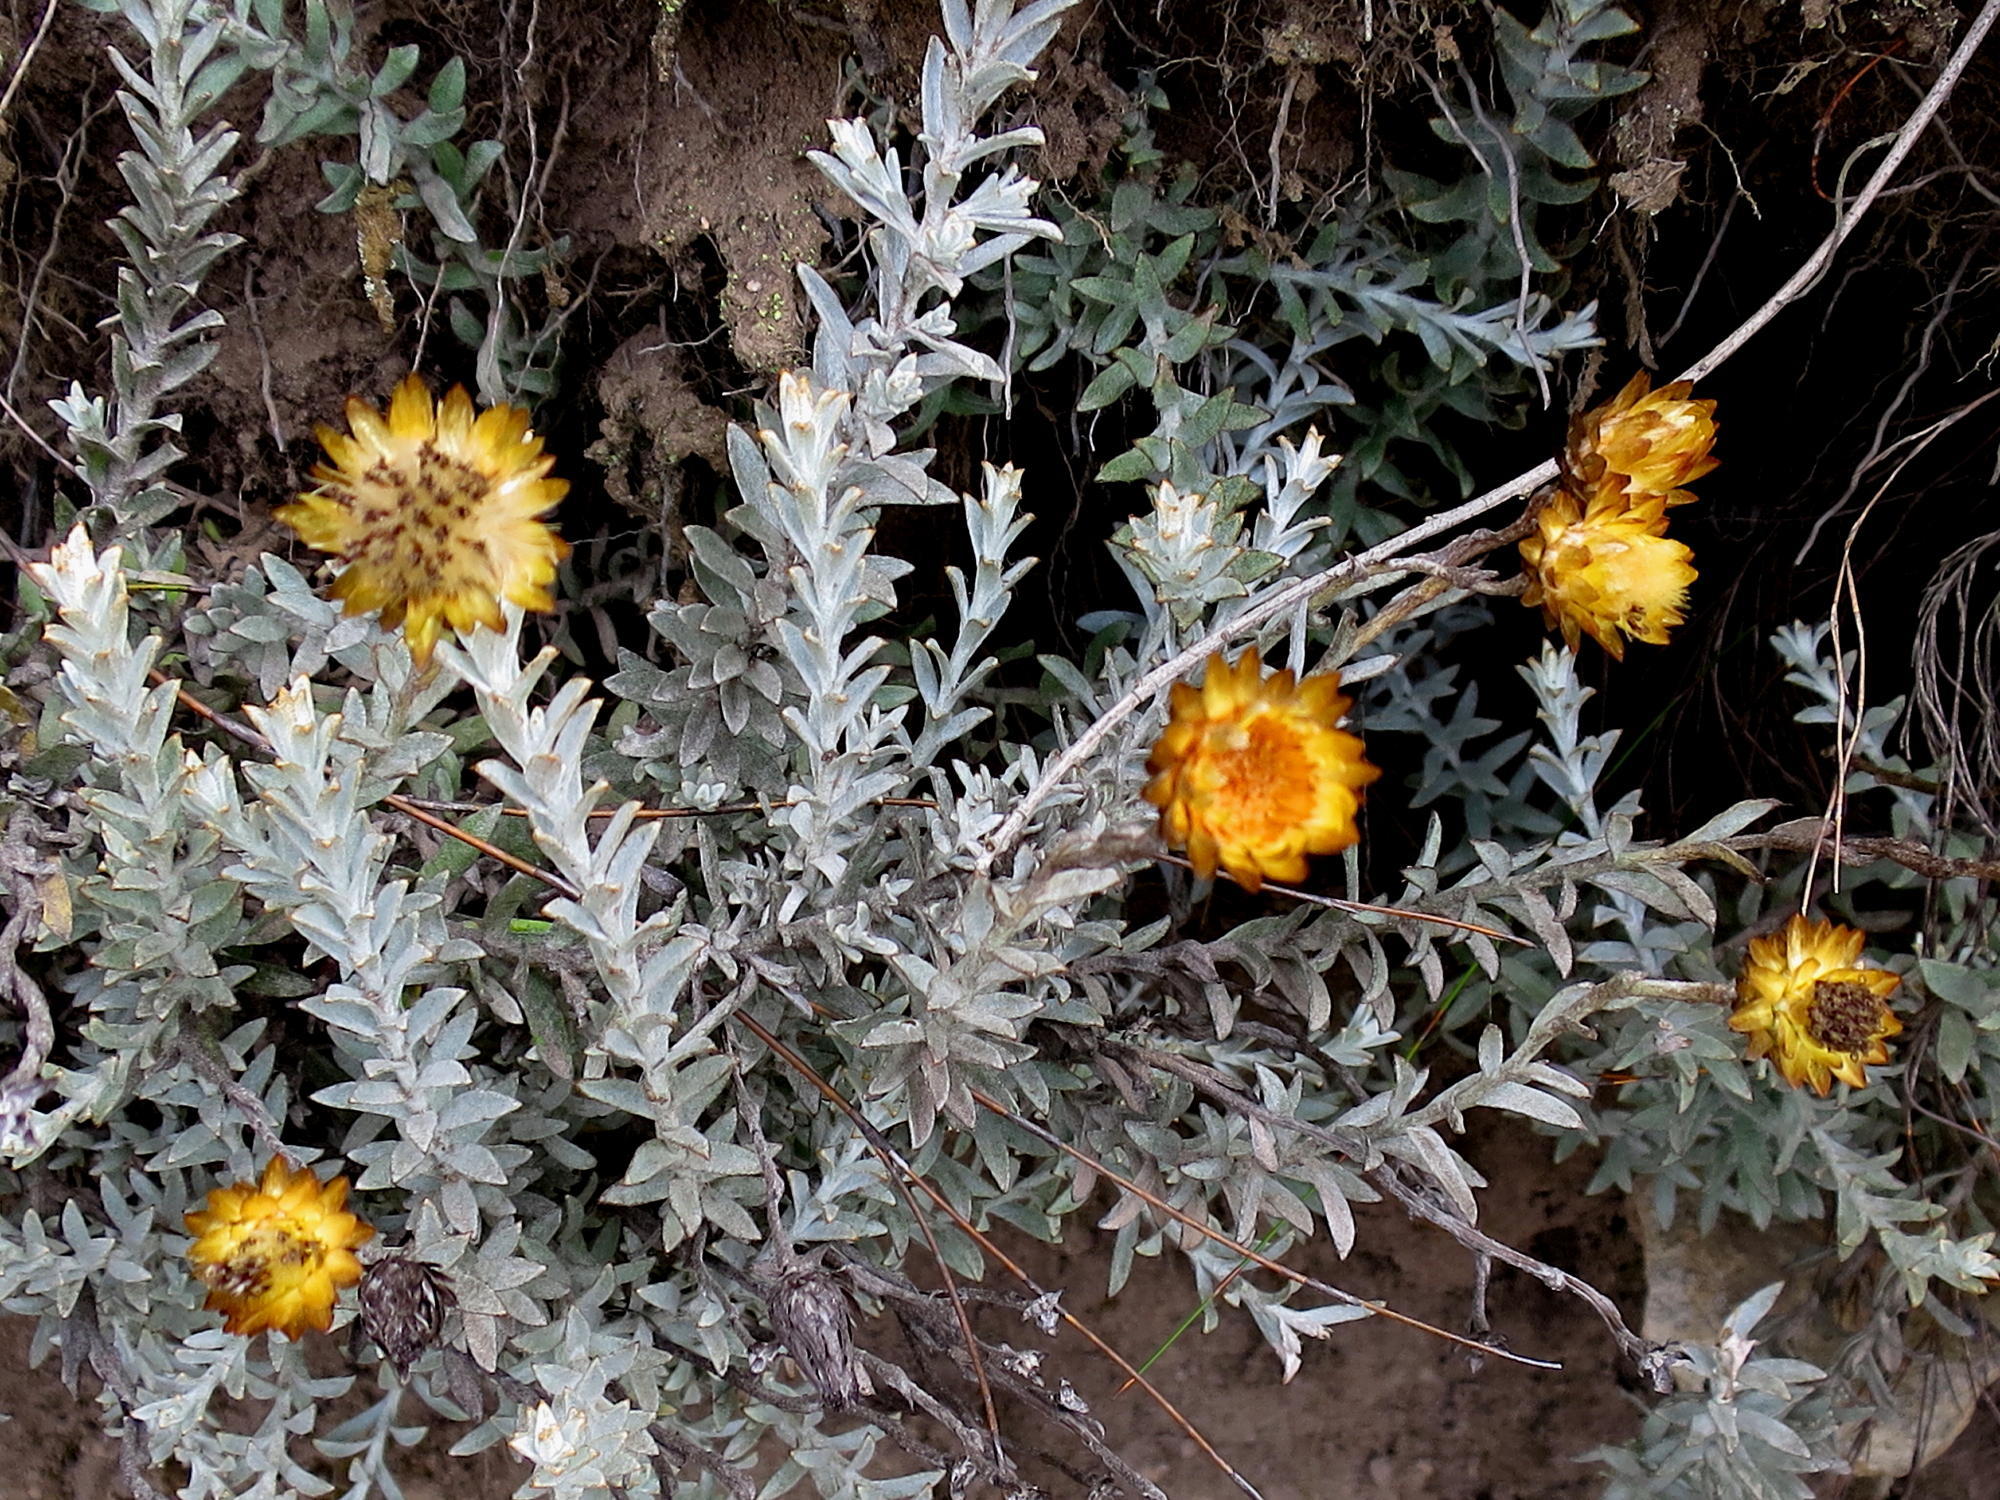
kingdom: Plantae
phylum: Tracheophyta
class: Magnoliopsida
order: Asterales
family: Asteraceae
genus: Syncarpha
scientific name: Syncarpha virgata
